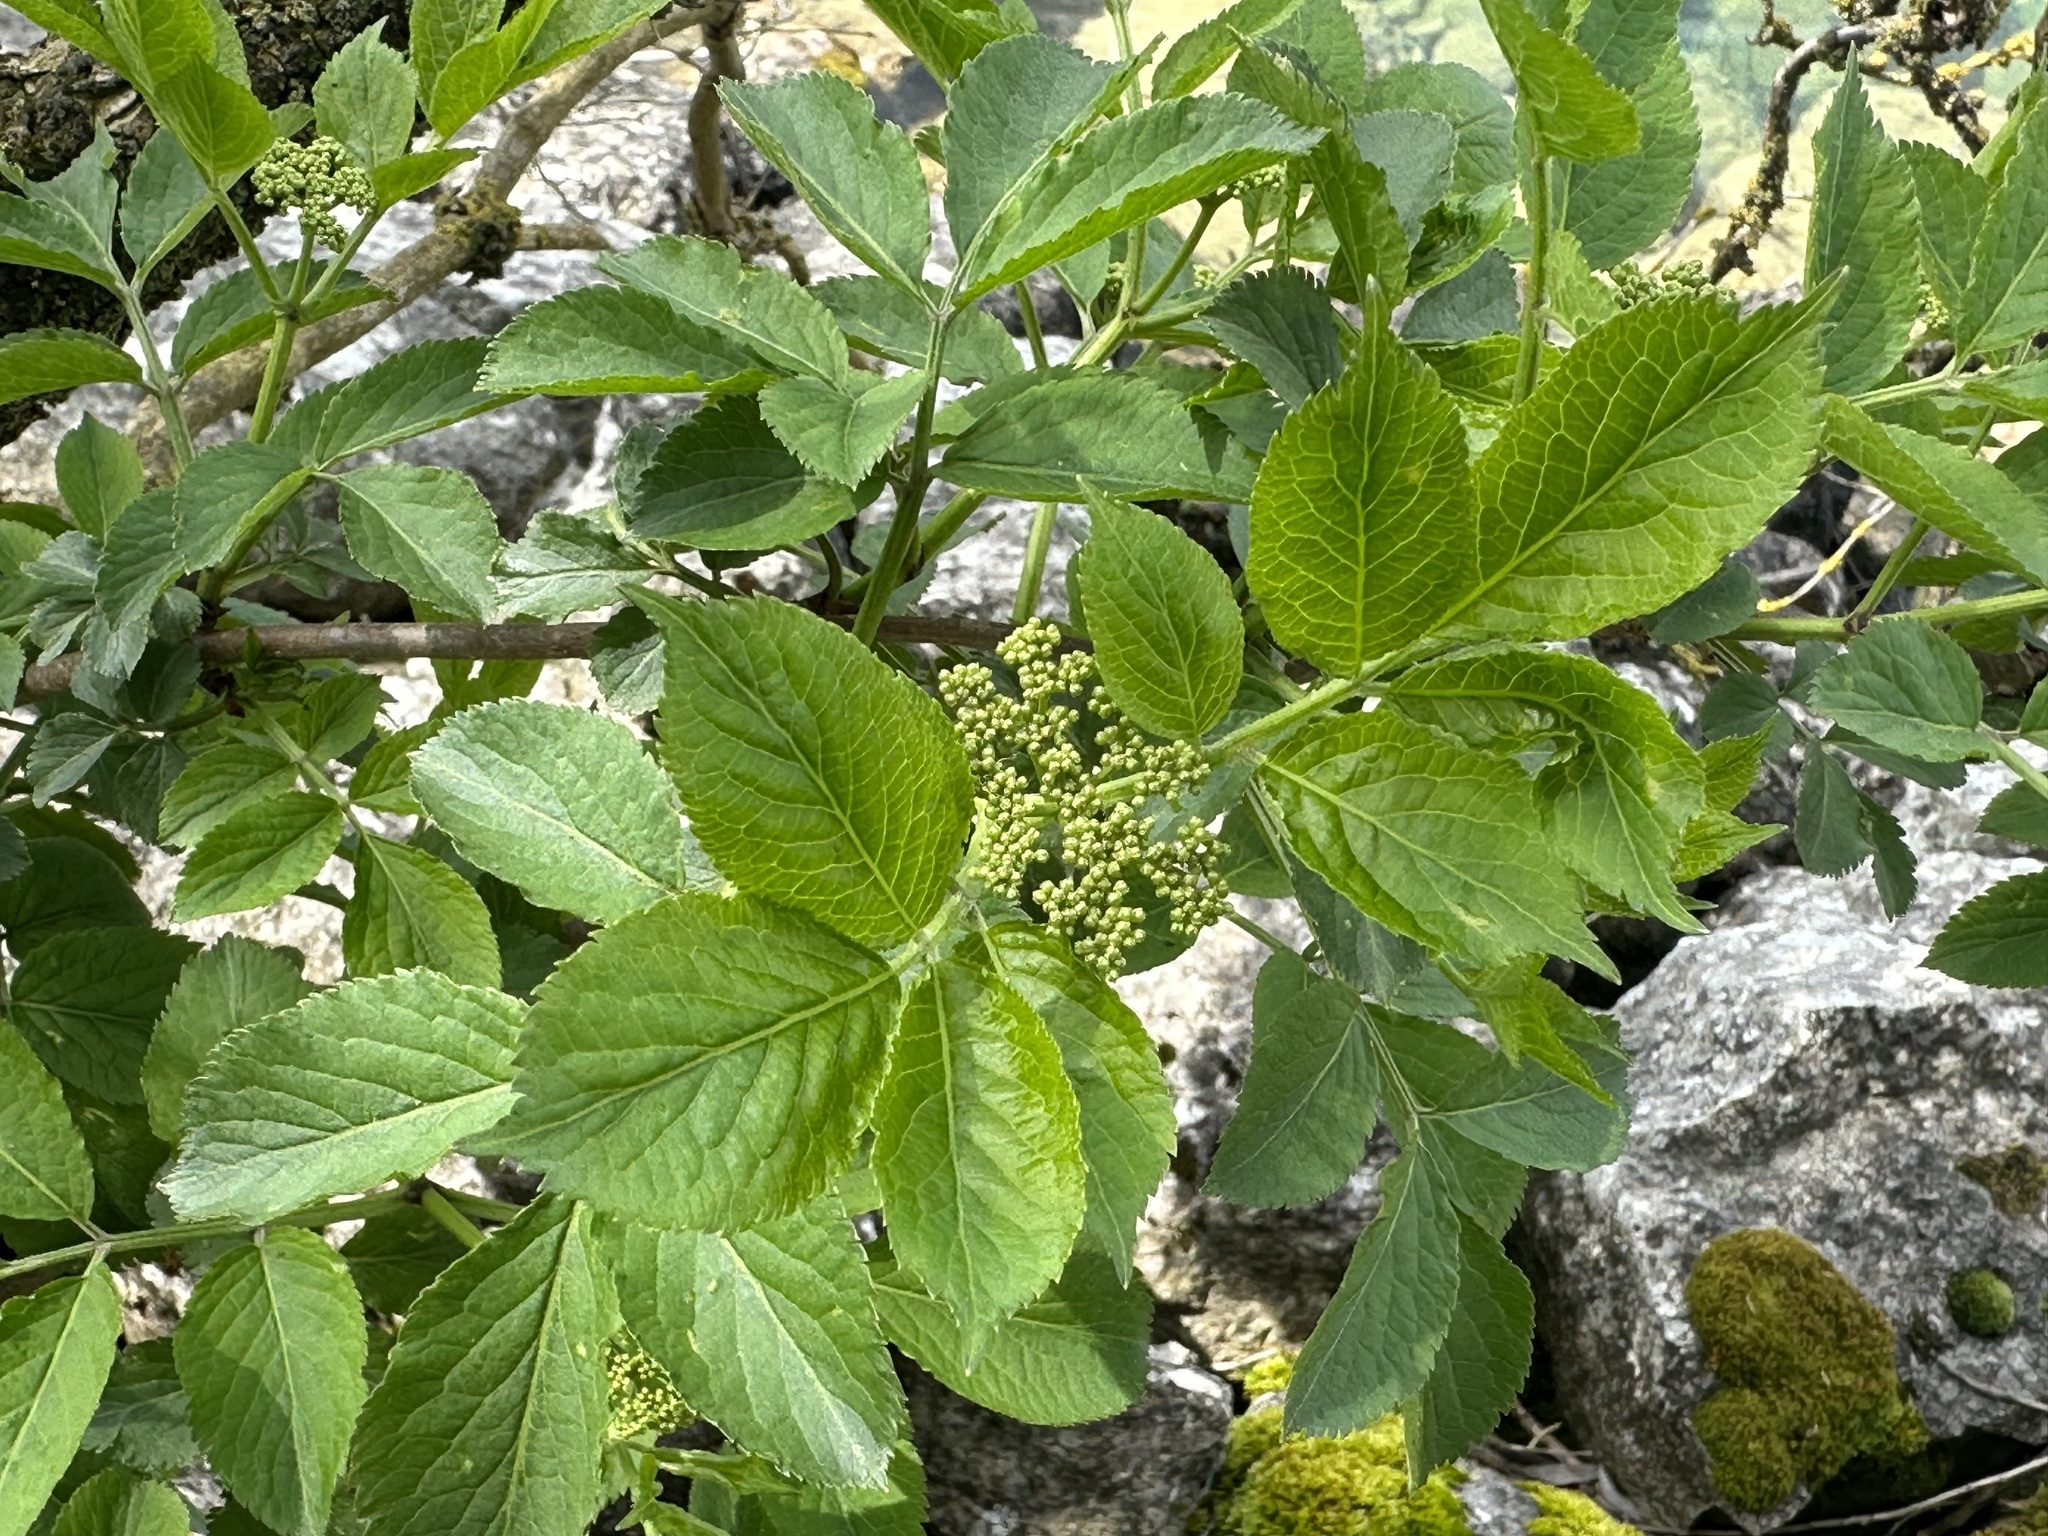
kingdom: Plantae
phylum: Tracheophyta
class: Magnoliopsida
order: Dipsacales
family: Viburnaceae
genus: Sambucus
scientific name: Sambucus nigra
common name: Elder
